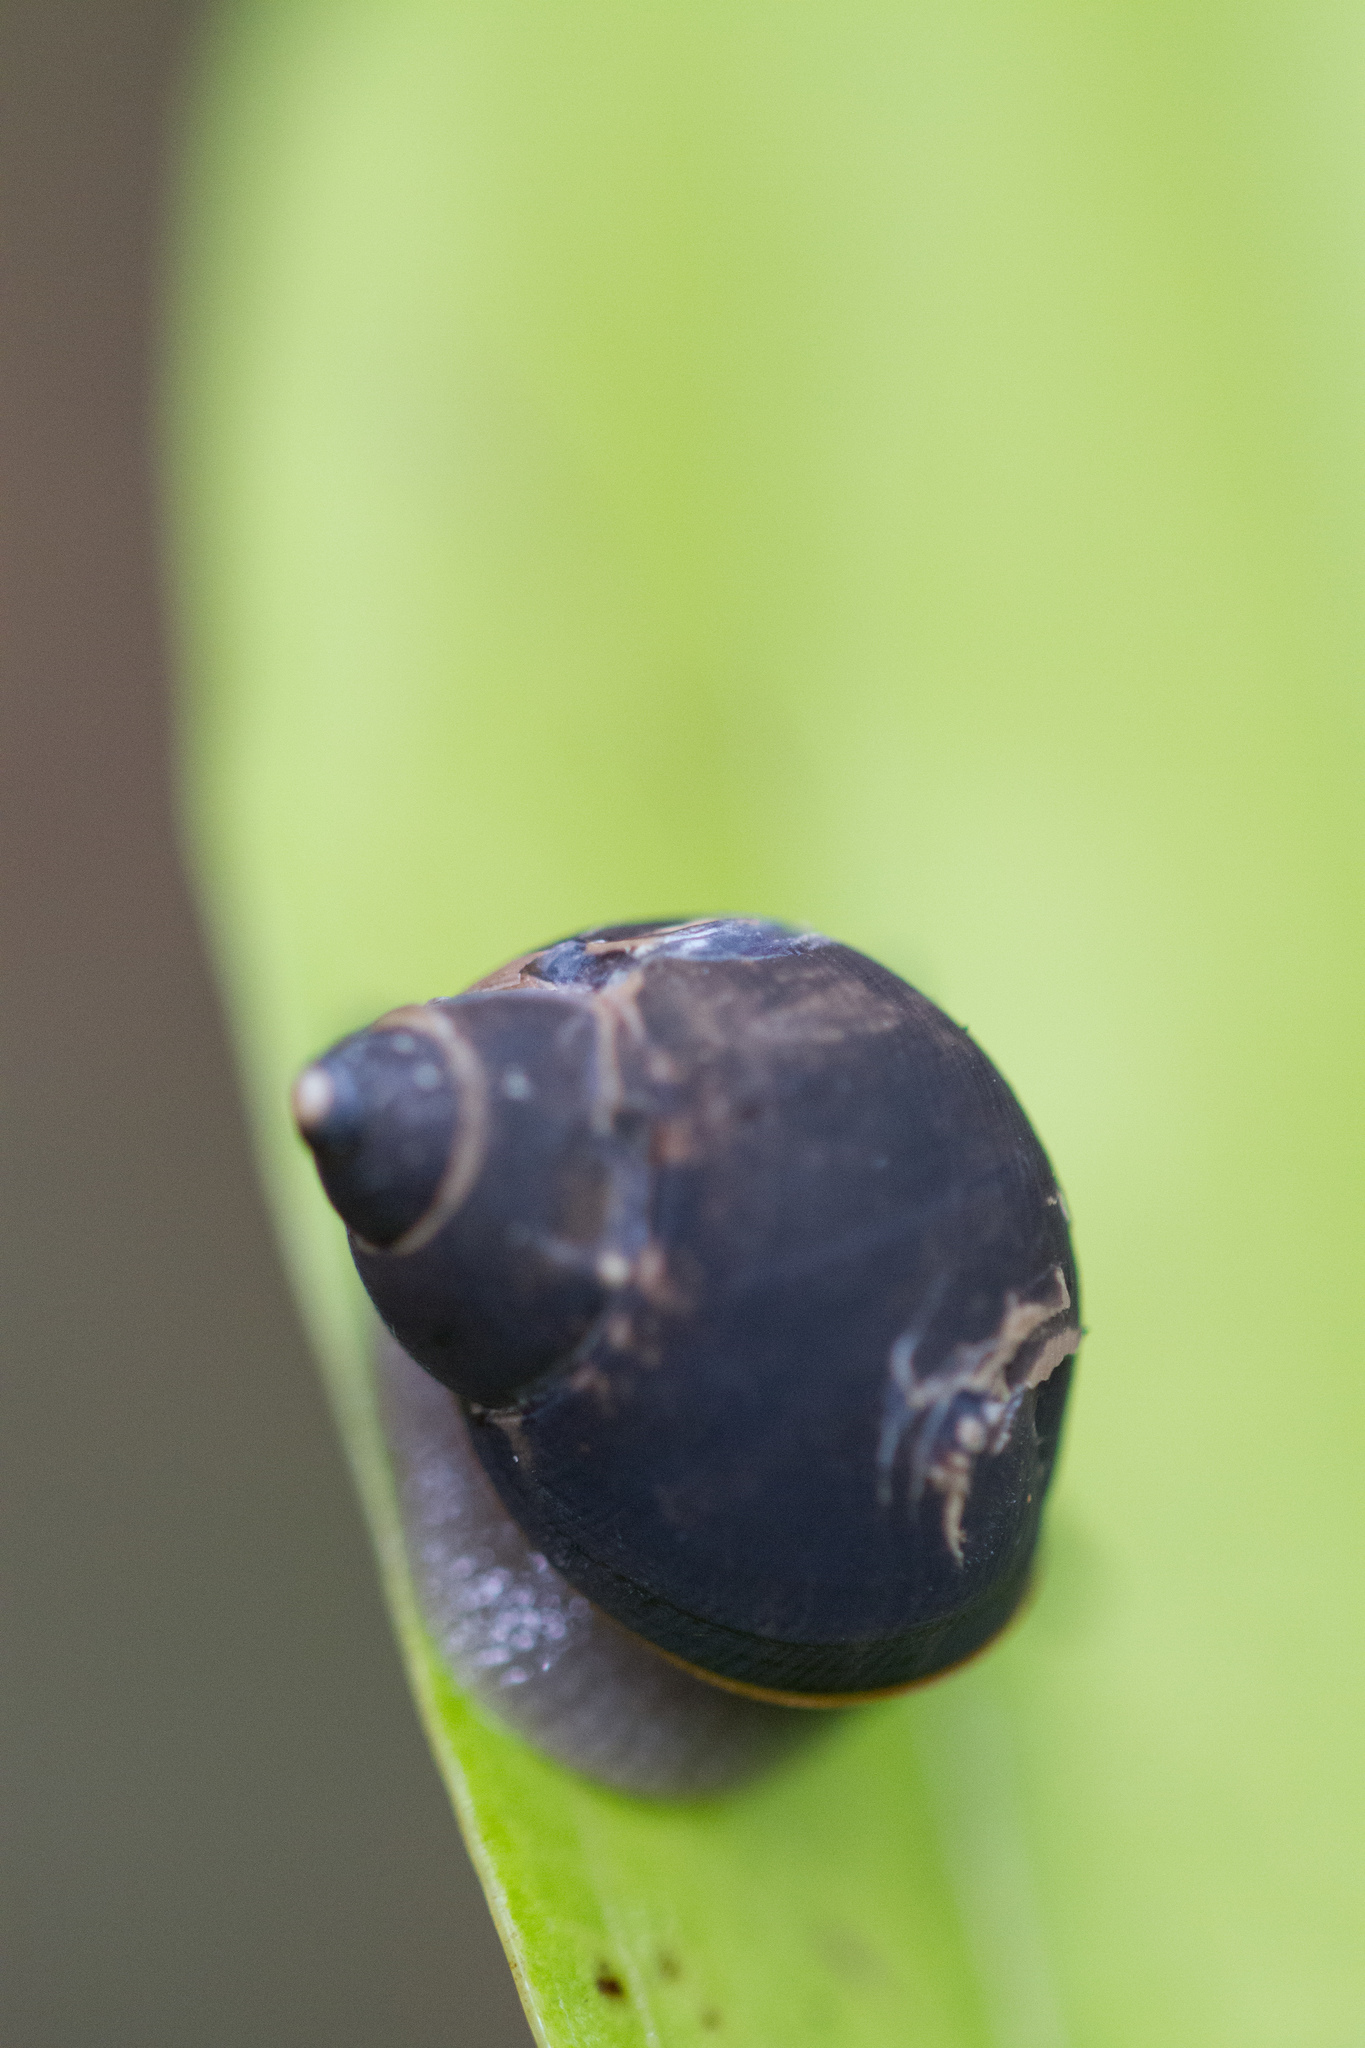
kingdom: Animalia
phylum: Mollusca
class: Gastropoda
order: Stylommatophora
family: Cerastidae
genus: Pachnodus
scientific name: Pachnodus niger
